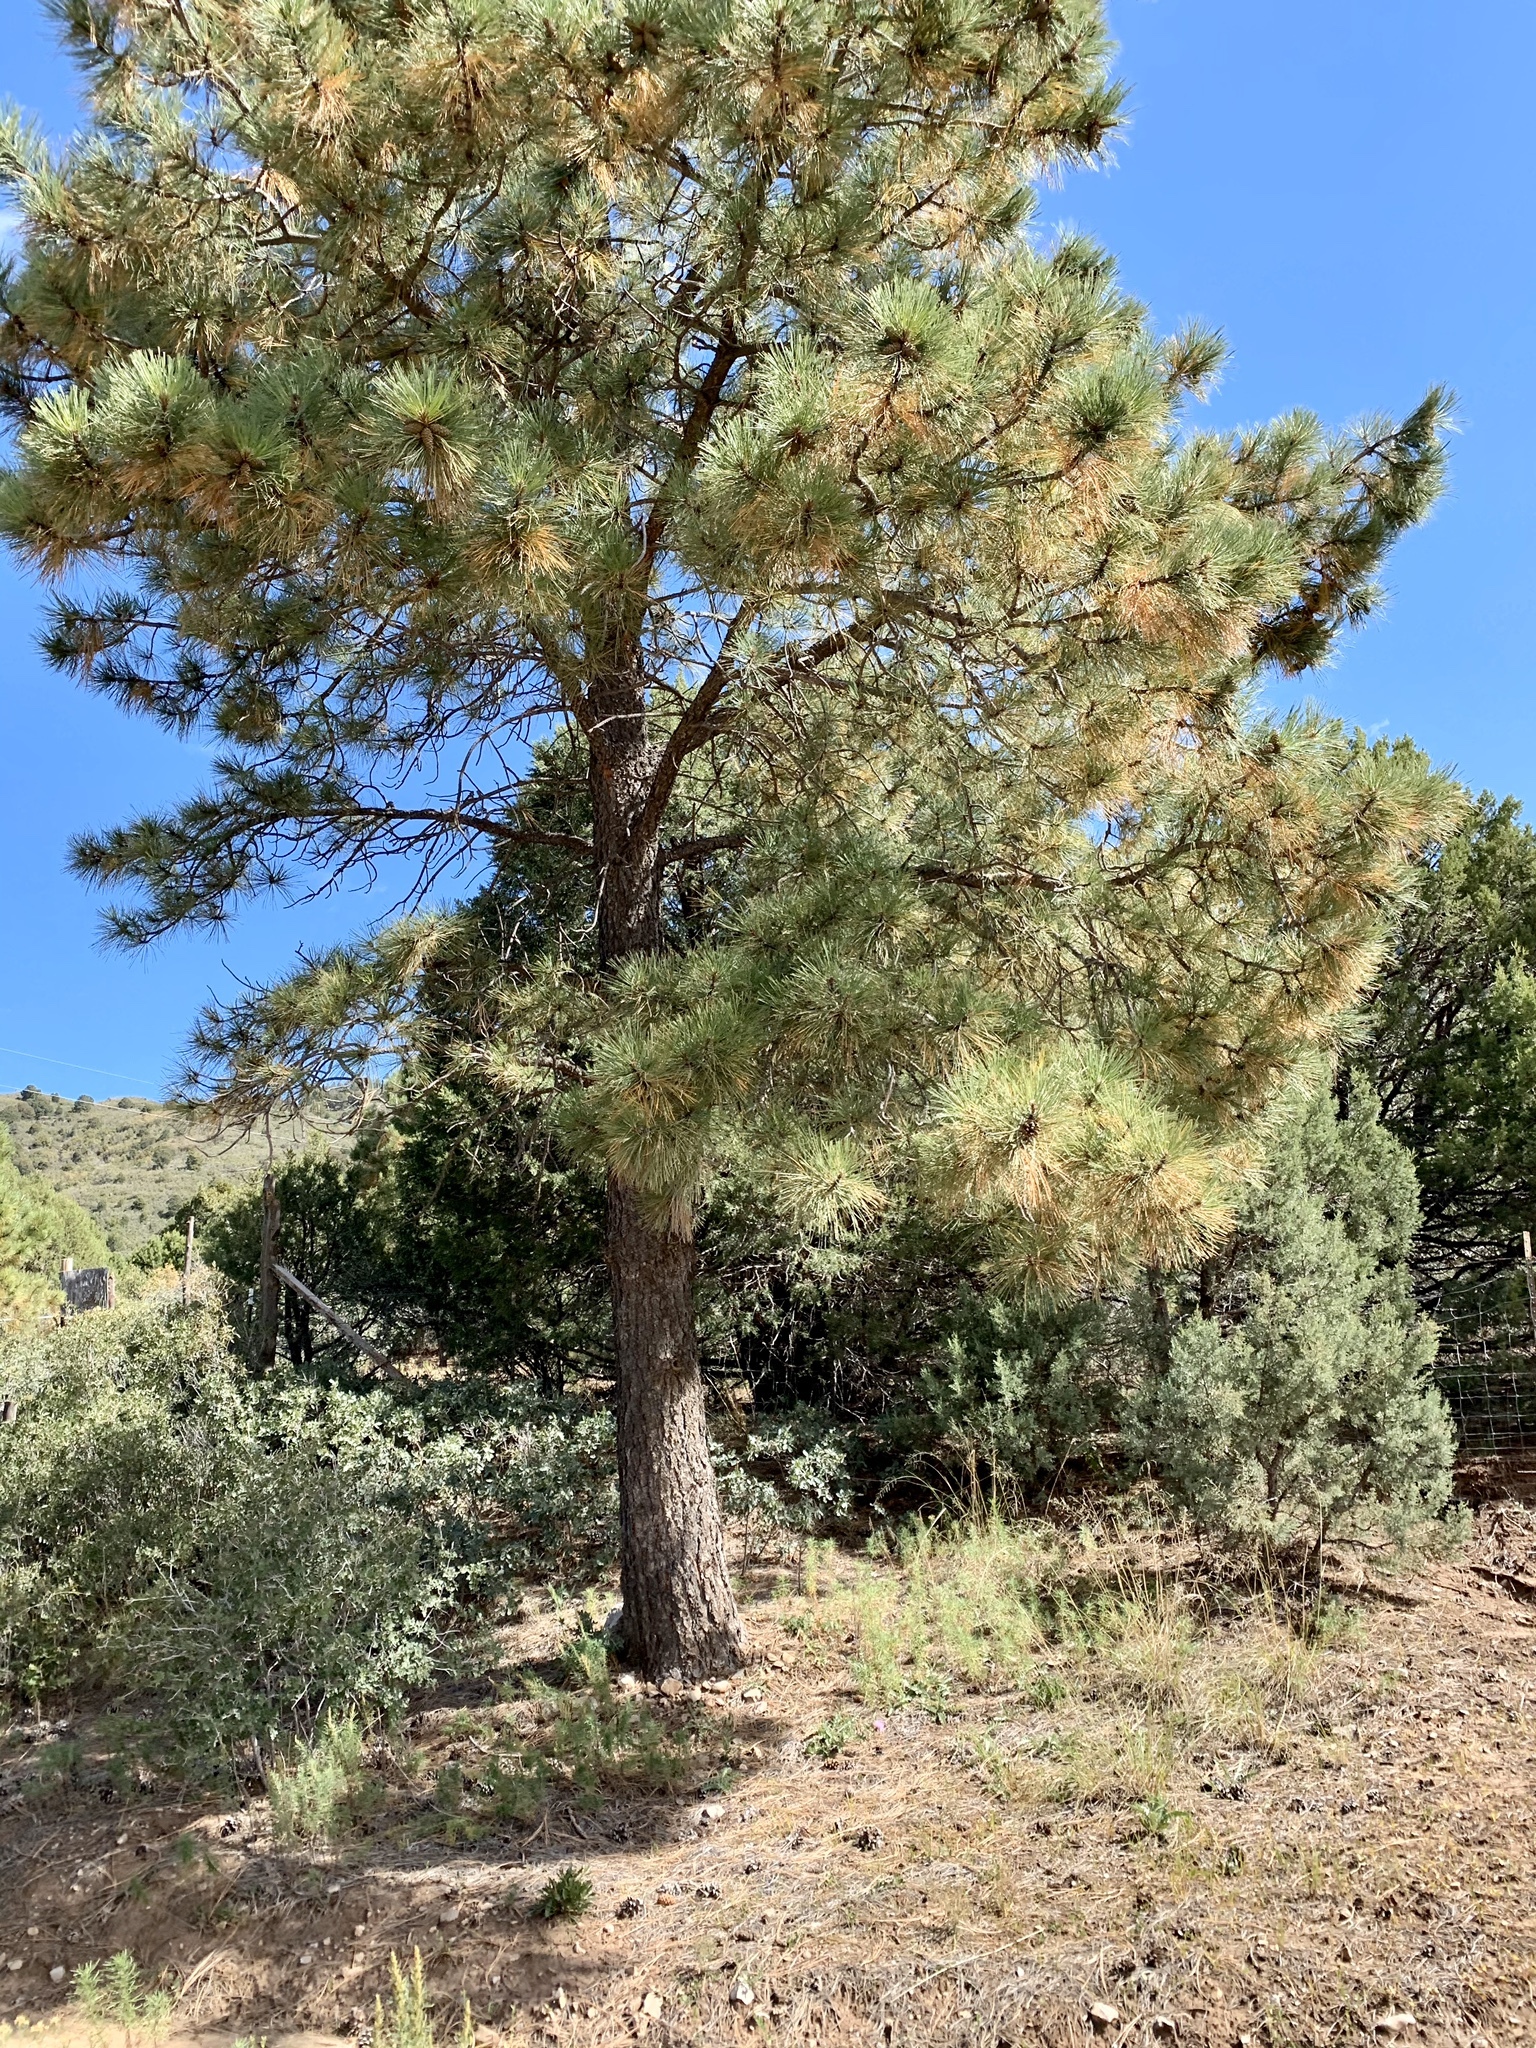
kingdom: Plantae
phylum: Tracheophyta
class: Pinopsida
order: Pinales
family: Pinaceae
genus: Pinus
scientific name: Pinus ponderosa
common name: Western yellow-pine
